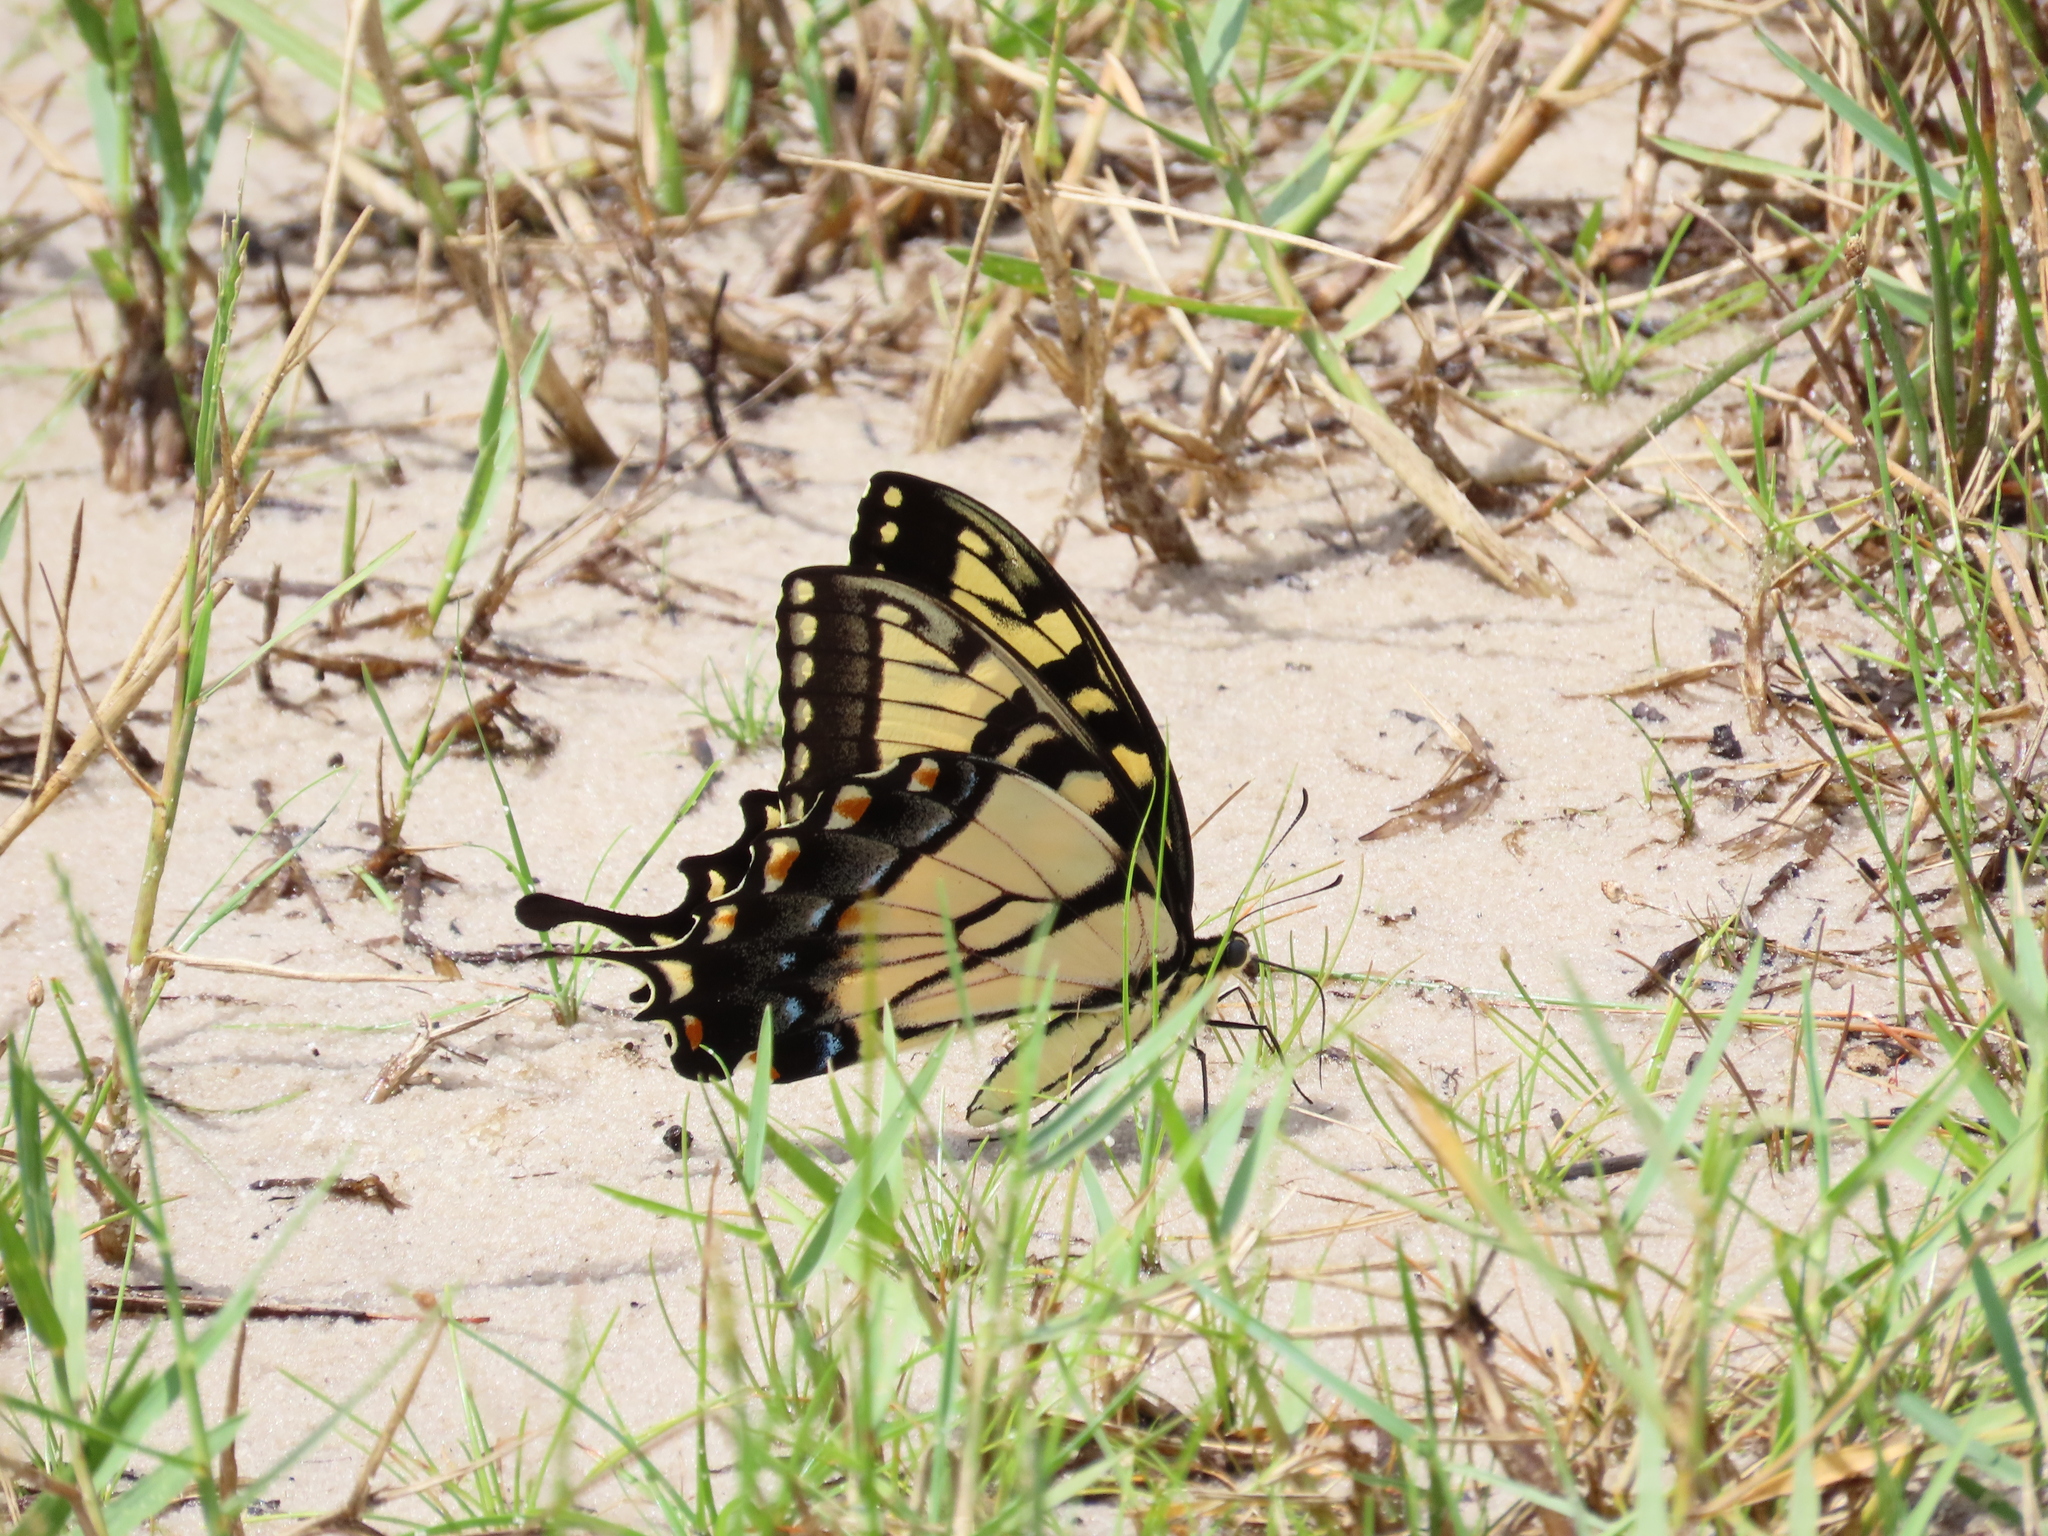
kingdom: Animalia
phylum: Arthropoda
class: Insecta
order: Lepidoptera
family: Papilionidae
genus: Papilio
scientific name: Papilio glaucus
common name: Tiger swallowtail
